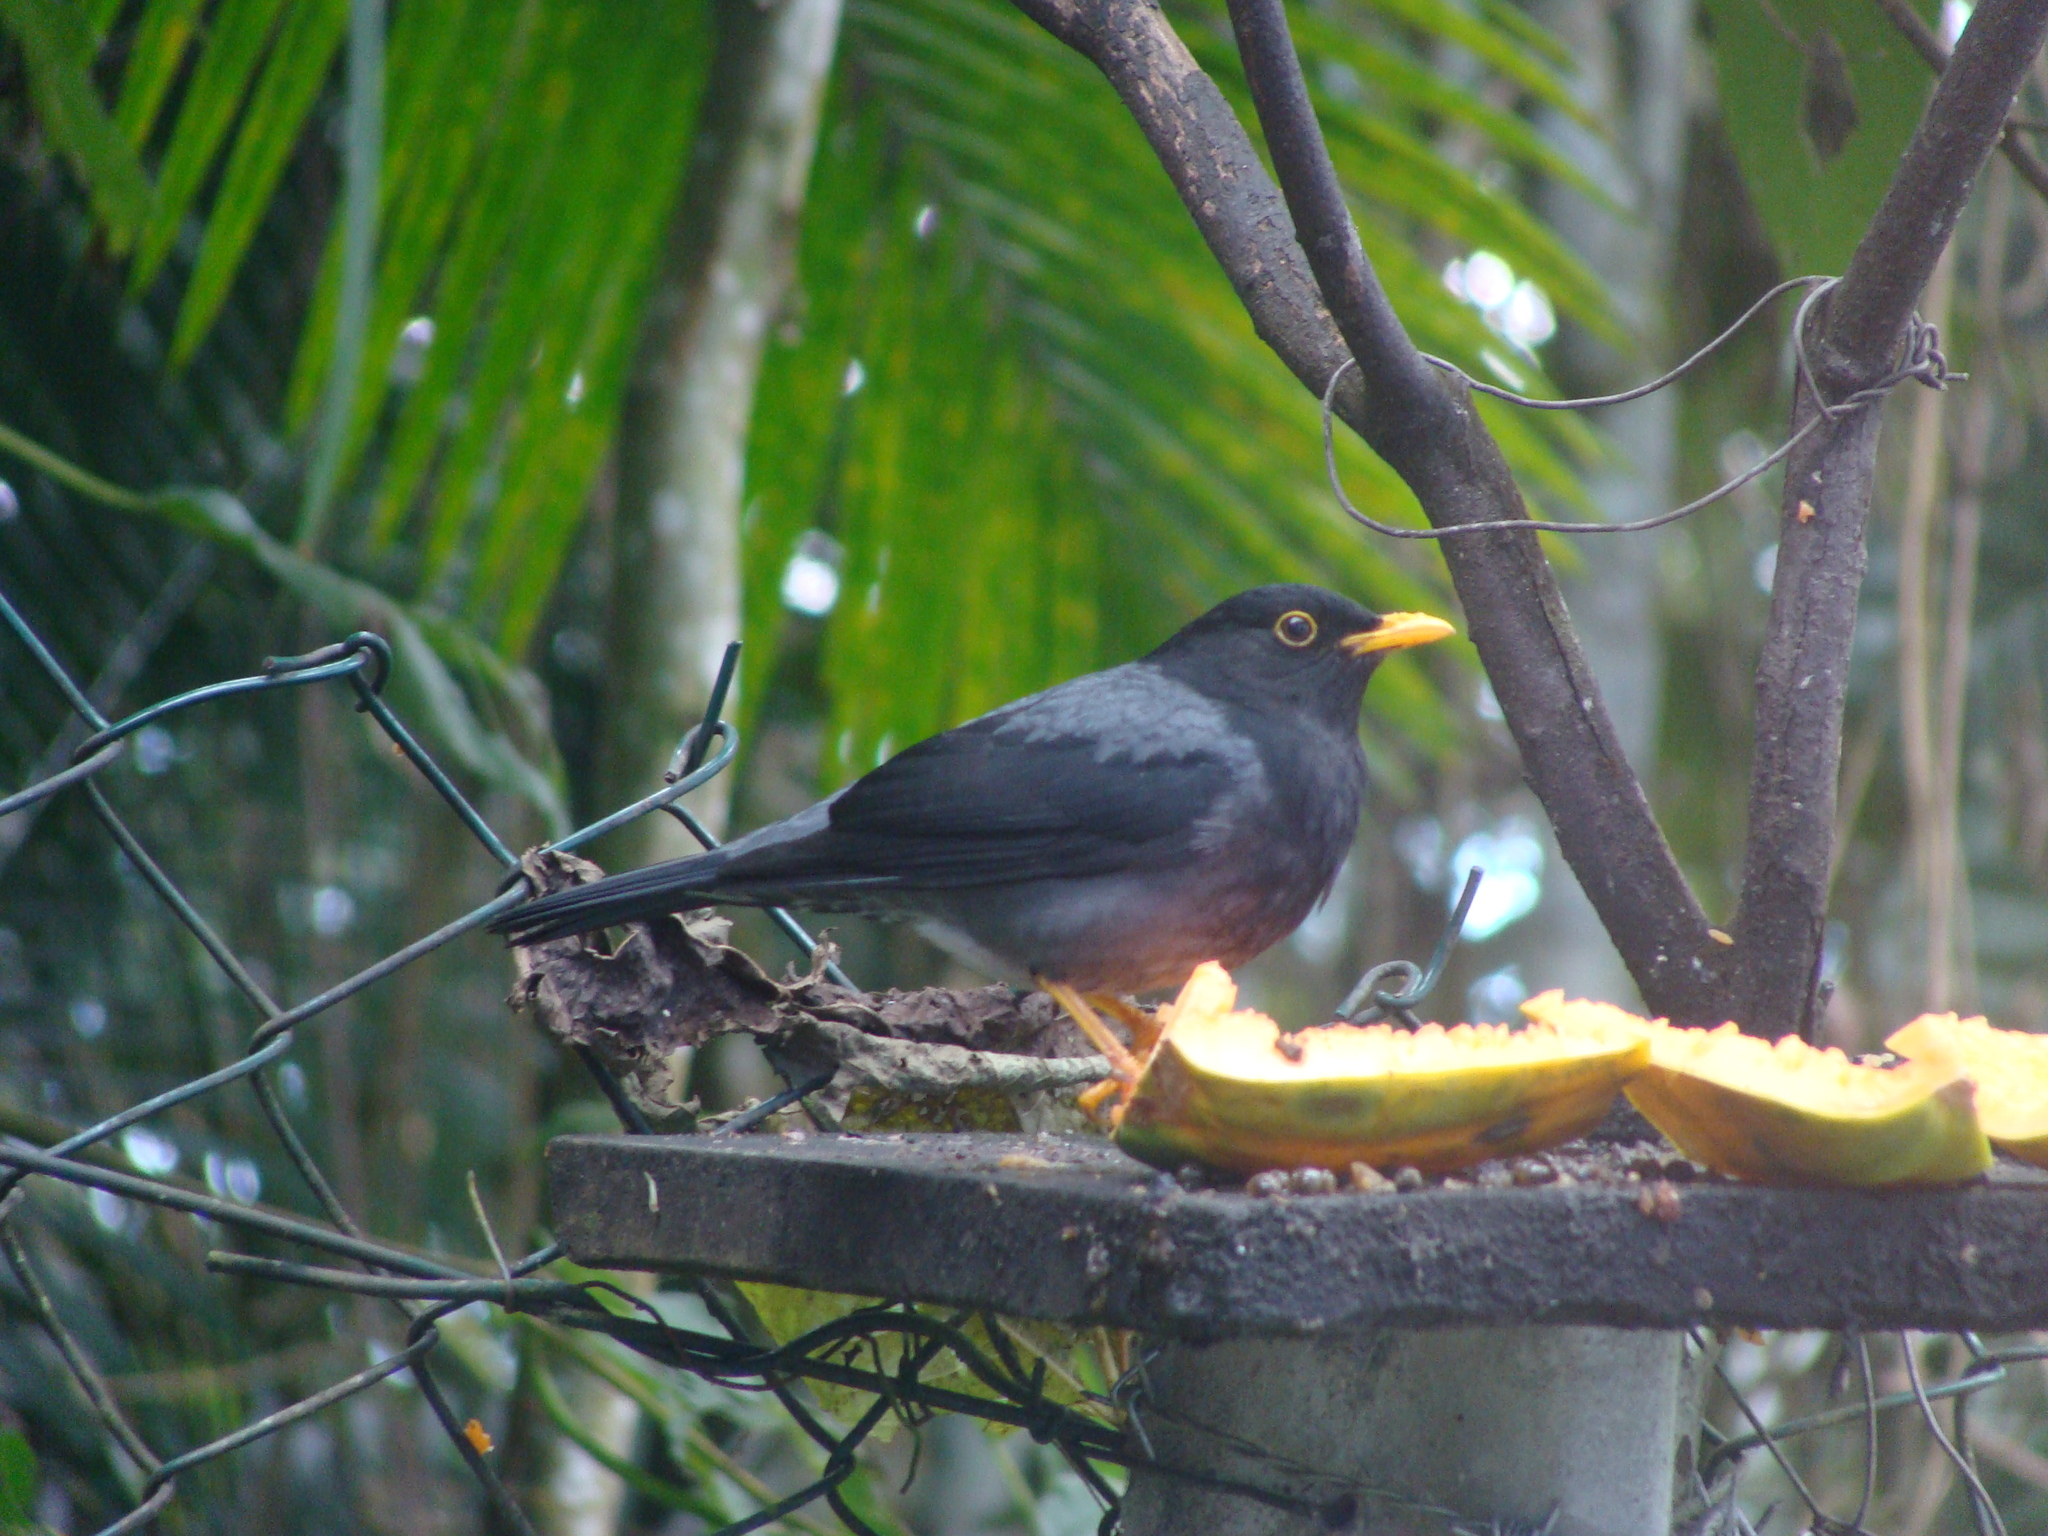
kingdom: Animalia
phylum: Chordata
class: Aves
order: Passeriformes
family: Turdidae
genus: Turdus
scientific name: Turdus flavipes
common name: Yellow-legged thrush
